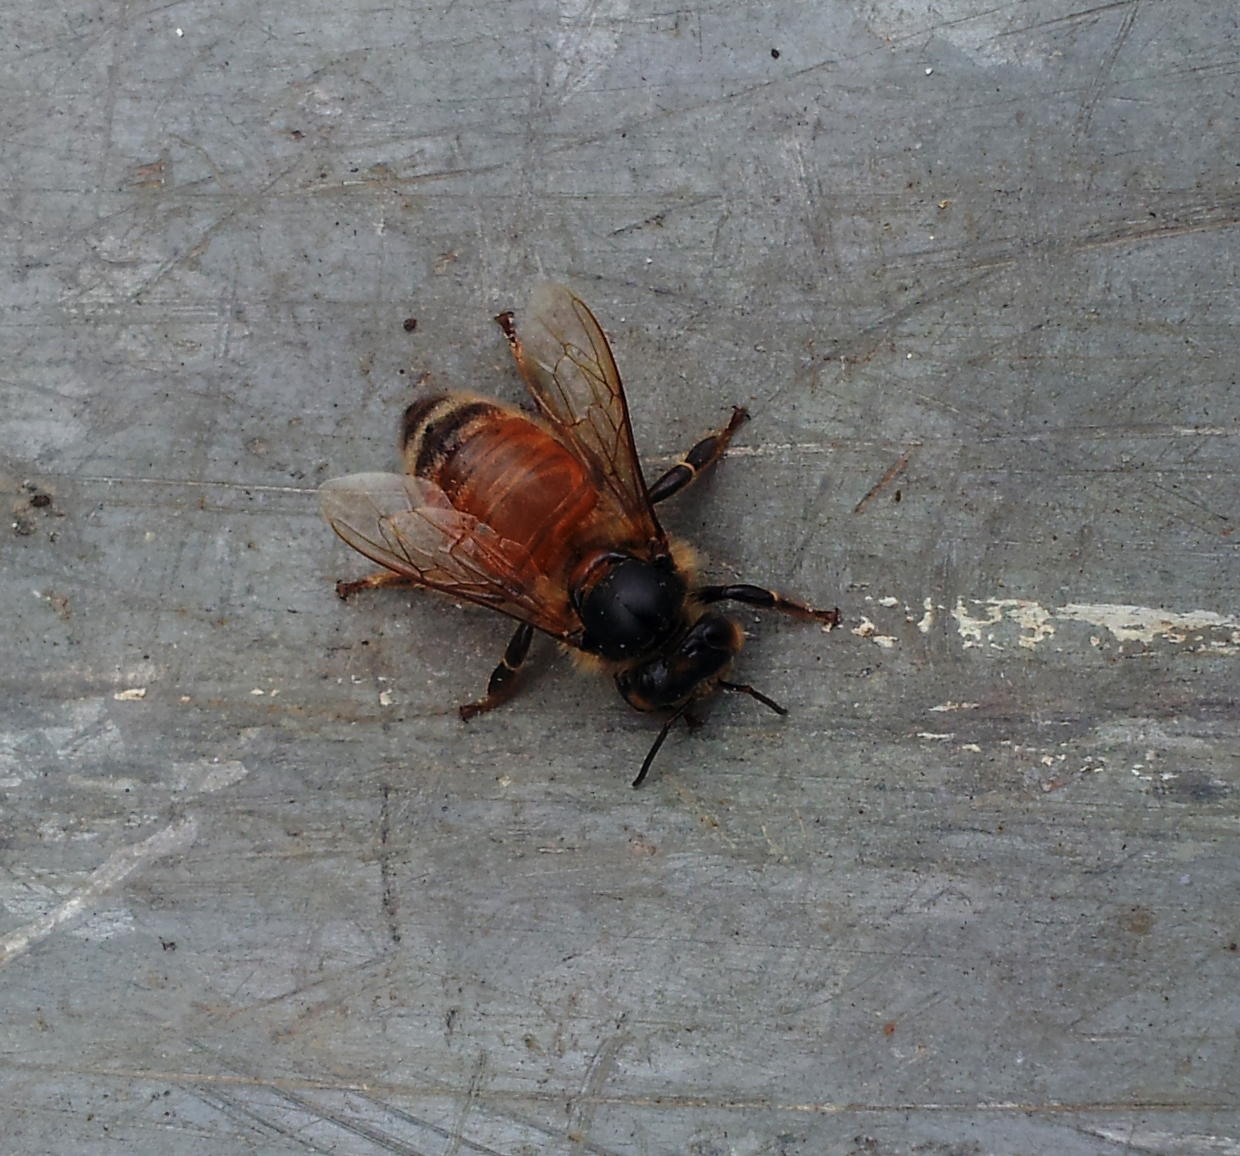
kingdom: Animalia
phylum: Arthropoda
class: Insecta
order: Hymenoptera
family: Apidae
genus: Apis
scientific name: Apis mellifera
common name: Honey bee
